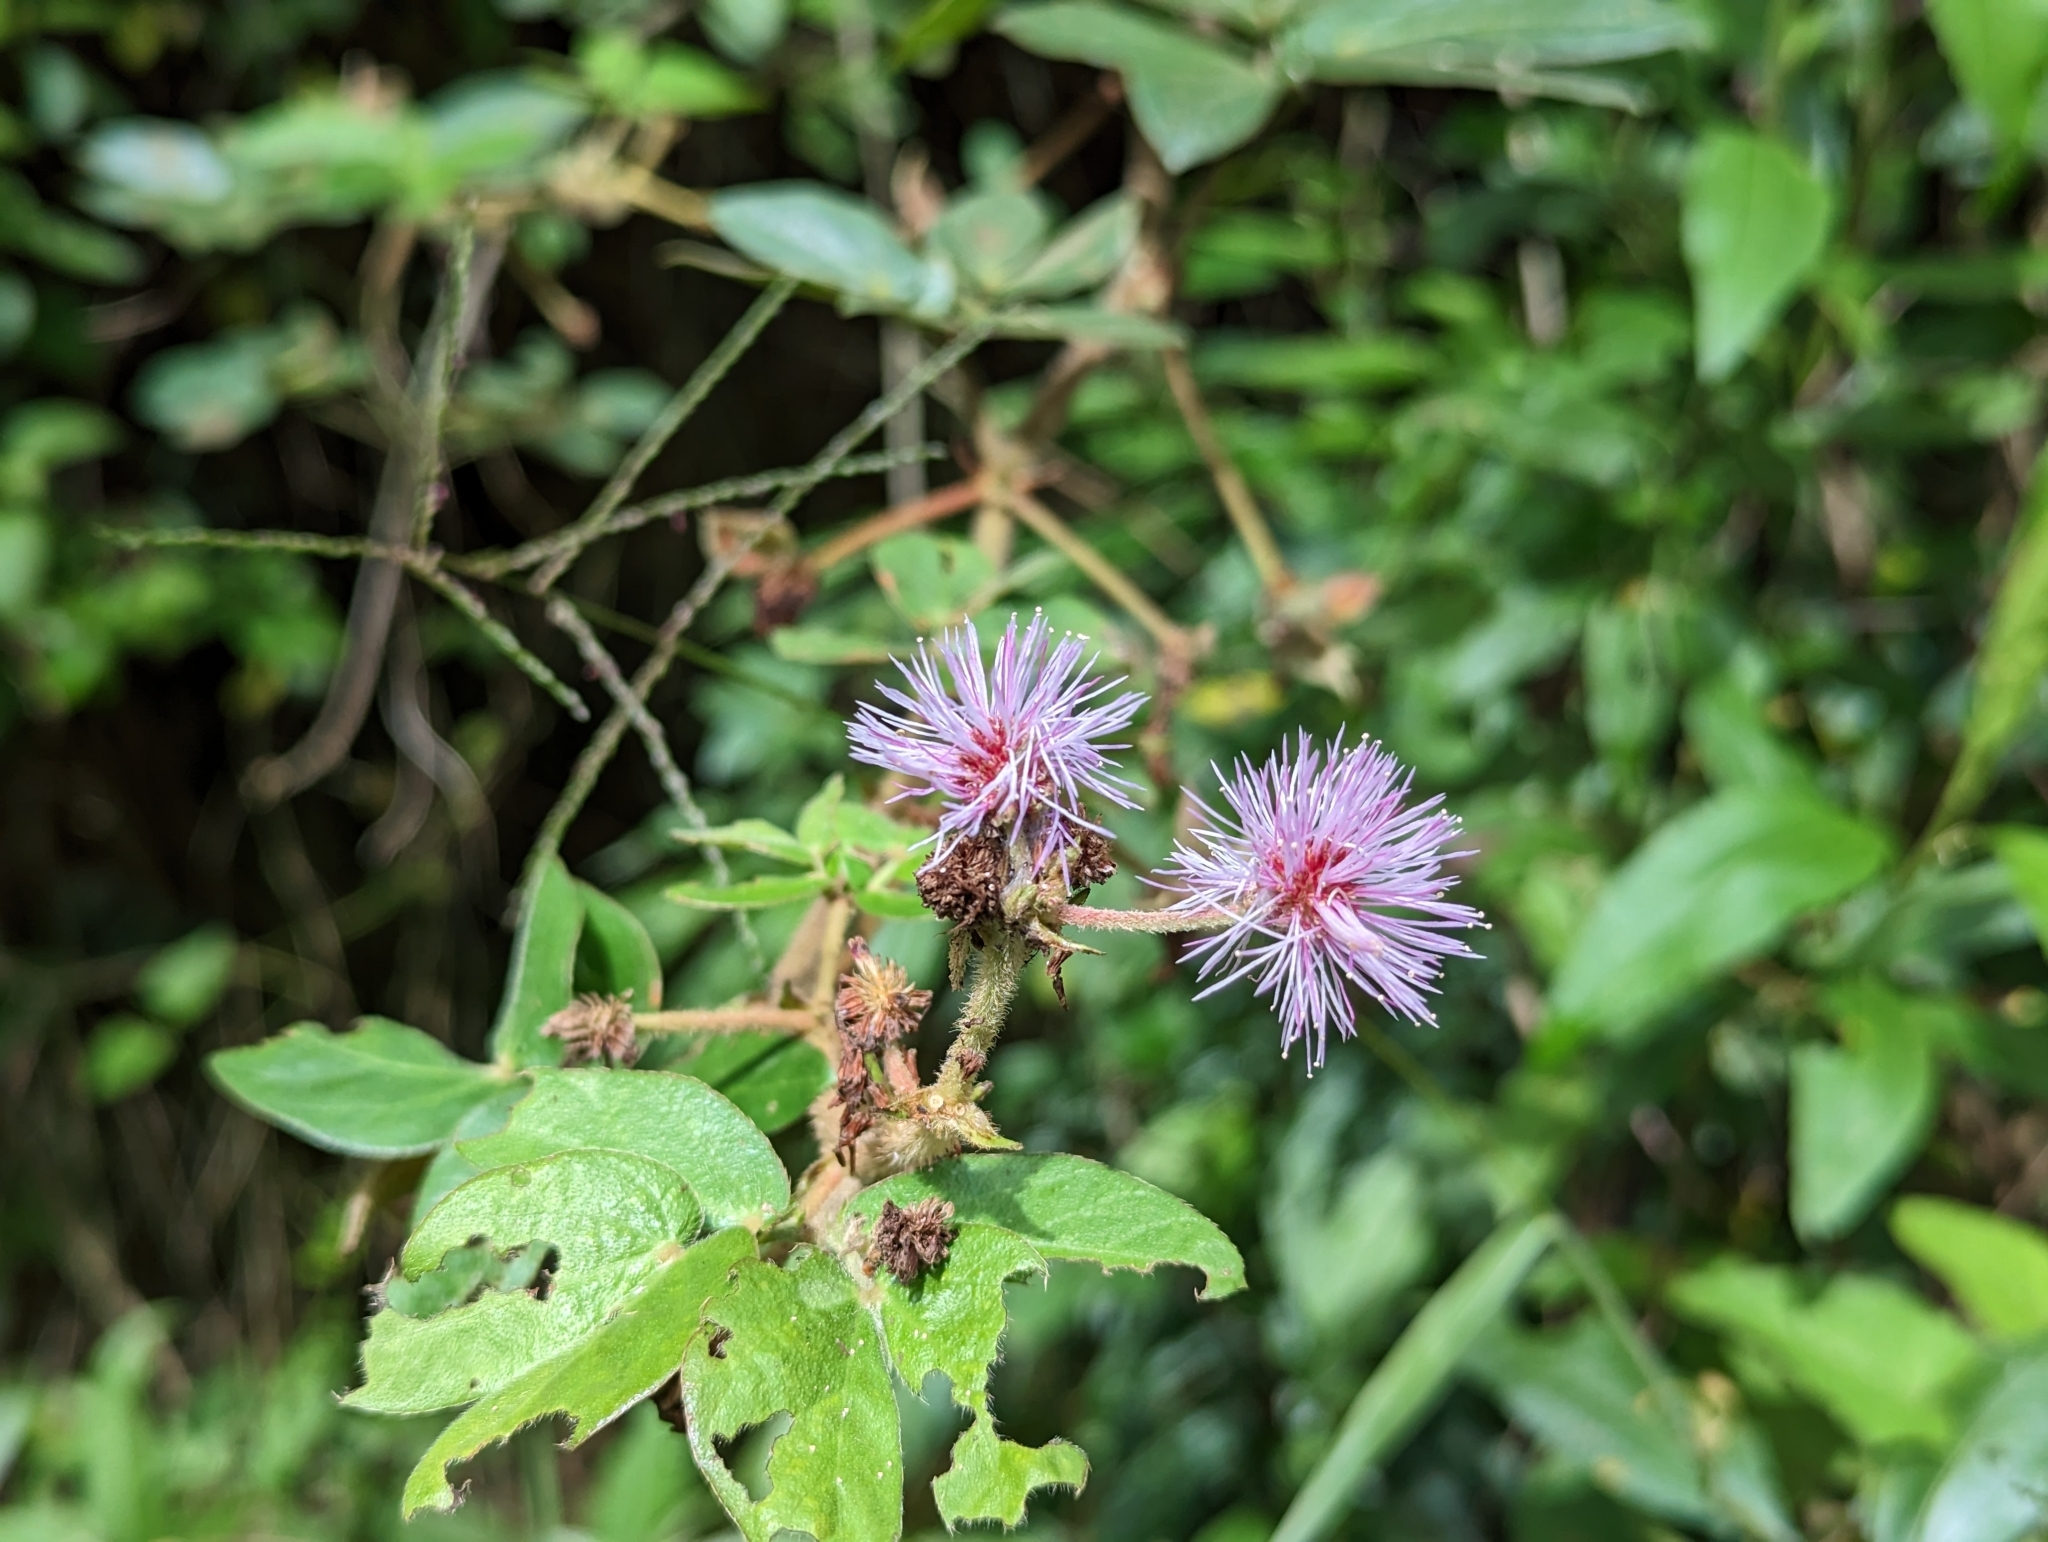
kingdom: Plantae
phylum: Tracheophyta
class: Magnoliopsida
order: Fabales
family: Fabaceae
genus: Mimosa
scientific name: Mimosa albida
